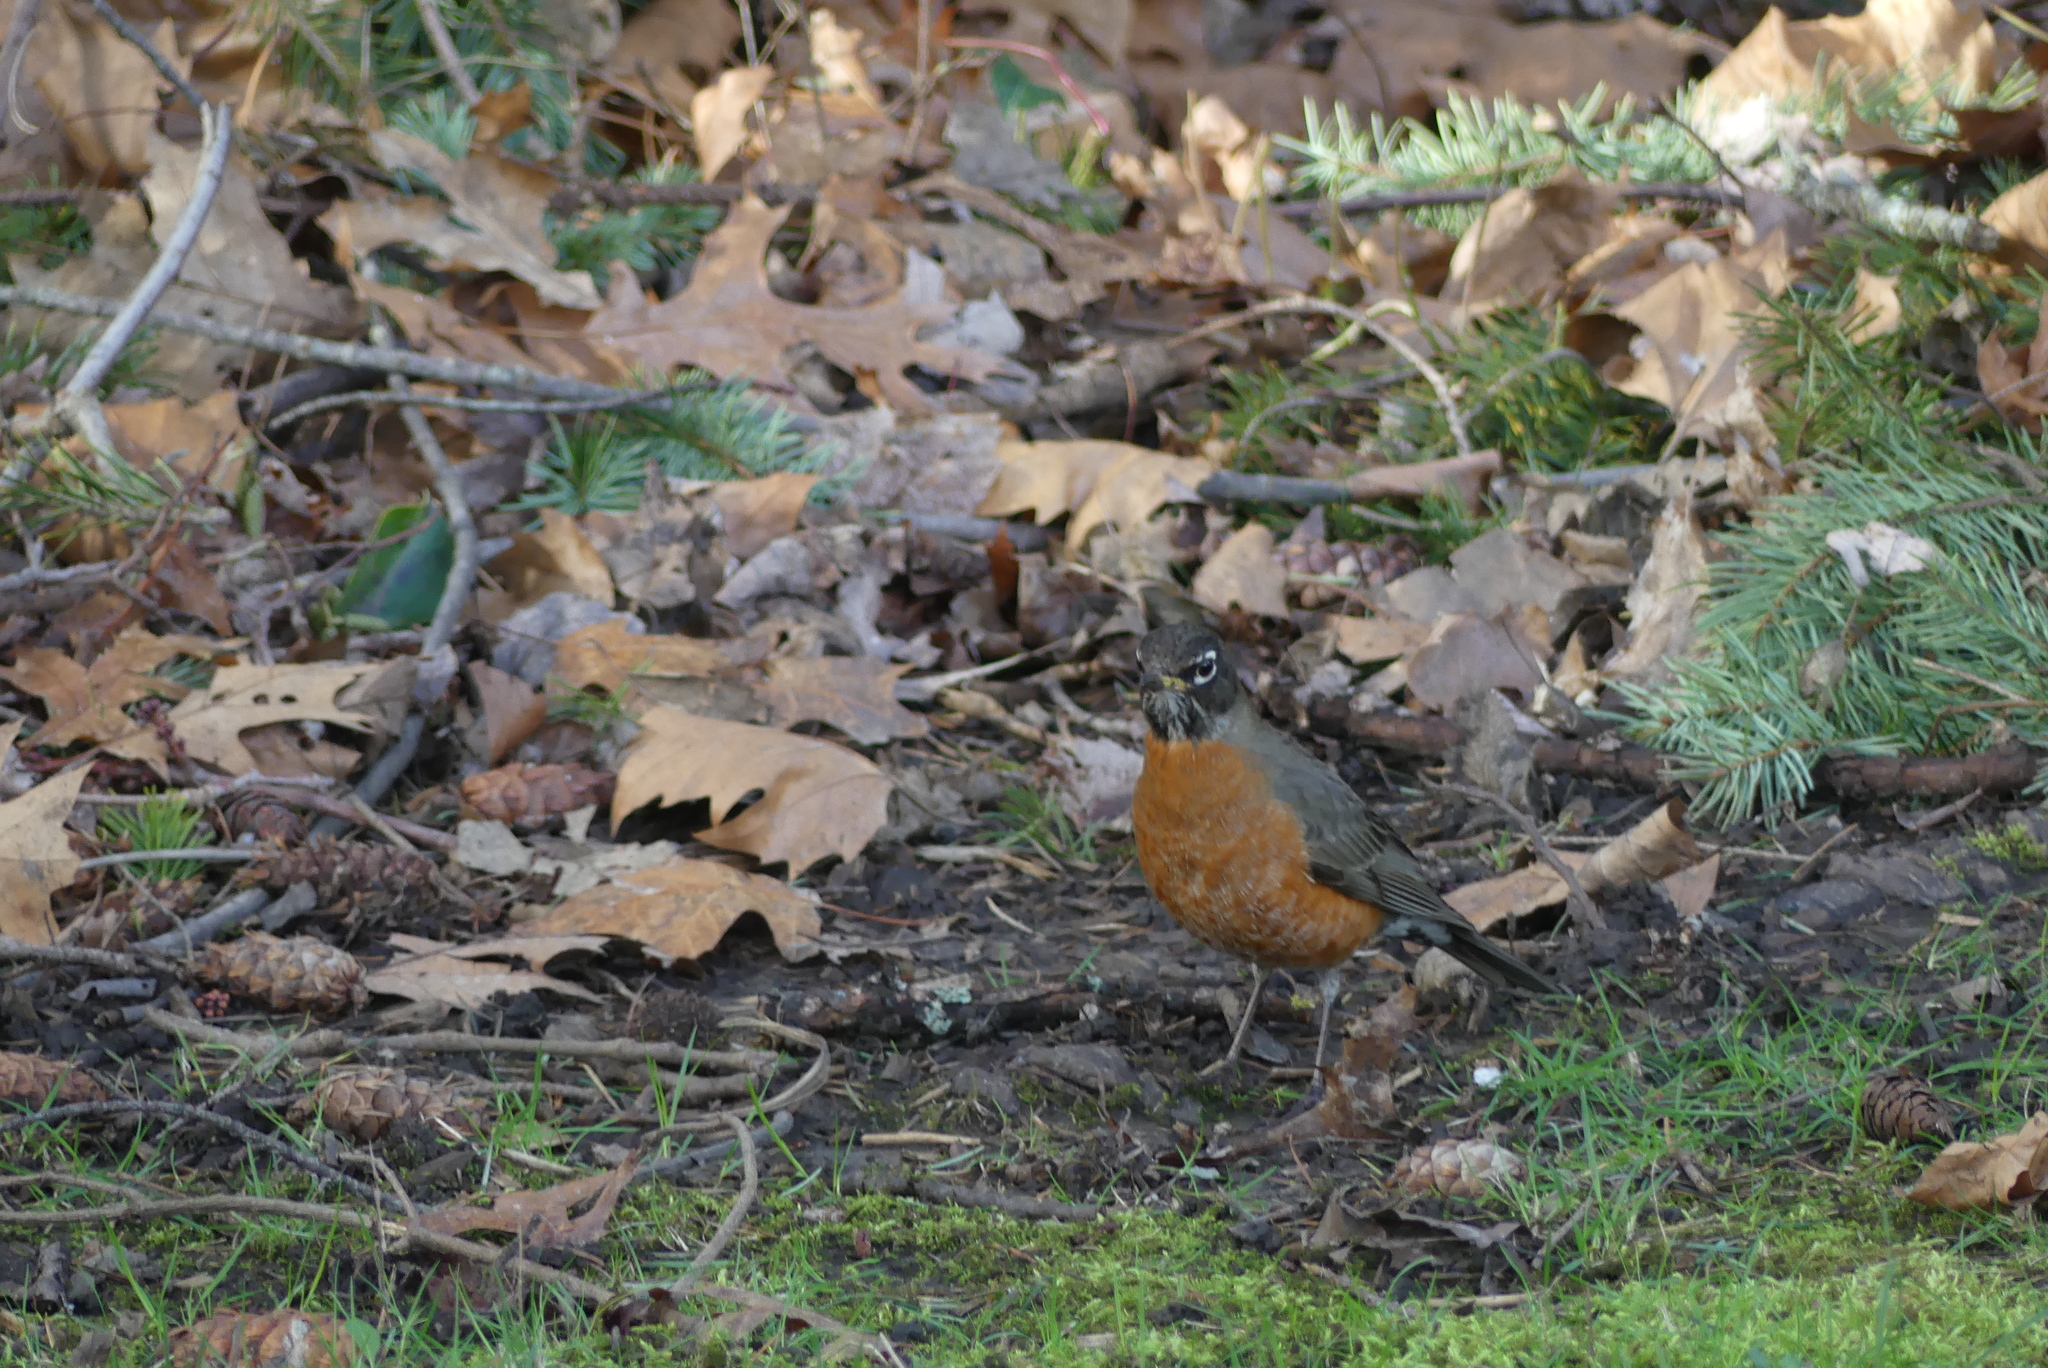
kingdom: Animalia
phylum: Chordata
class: Aves
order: Passeriformes
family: Turdidae
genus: Turdus
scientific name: Turdus migratorius
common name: American robin
